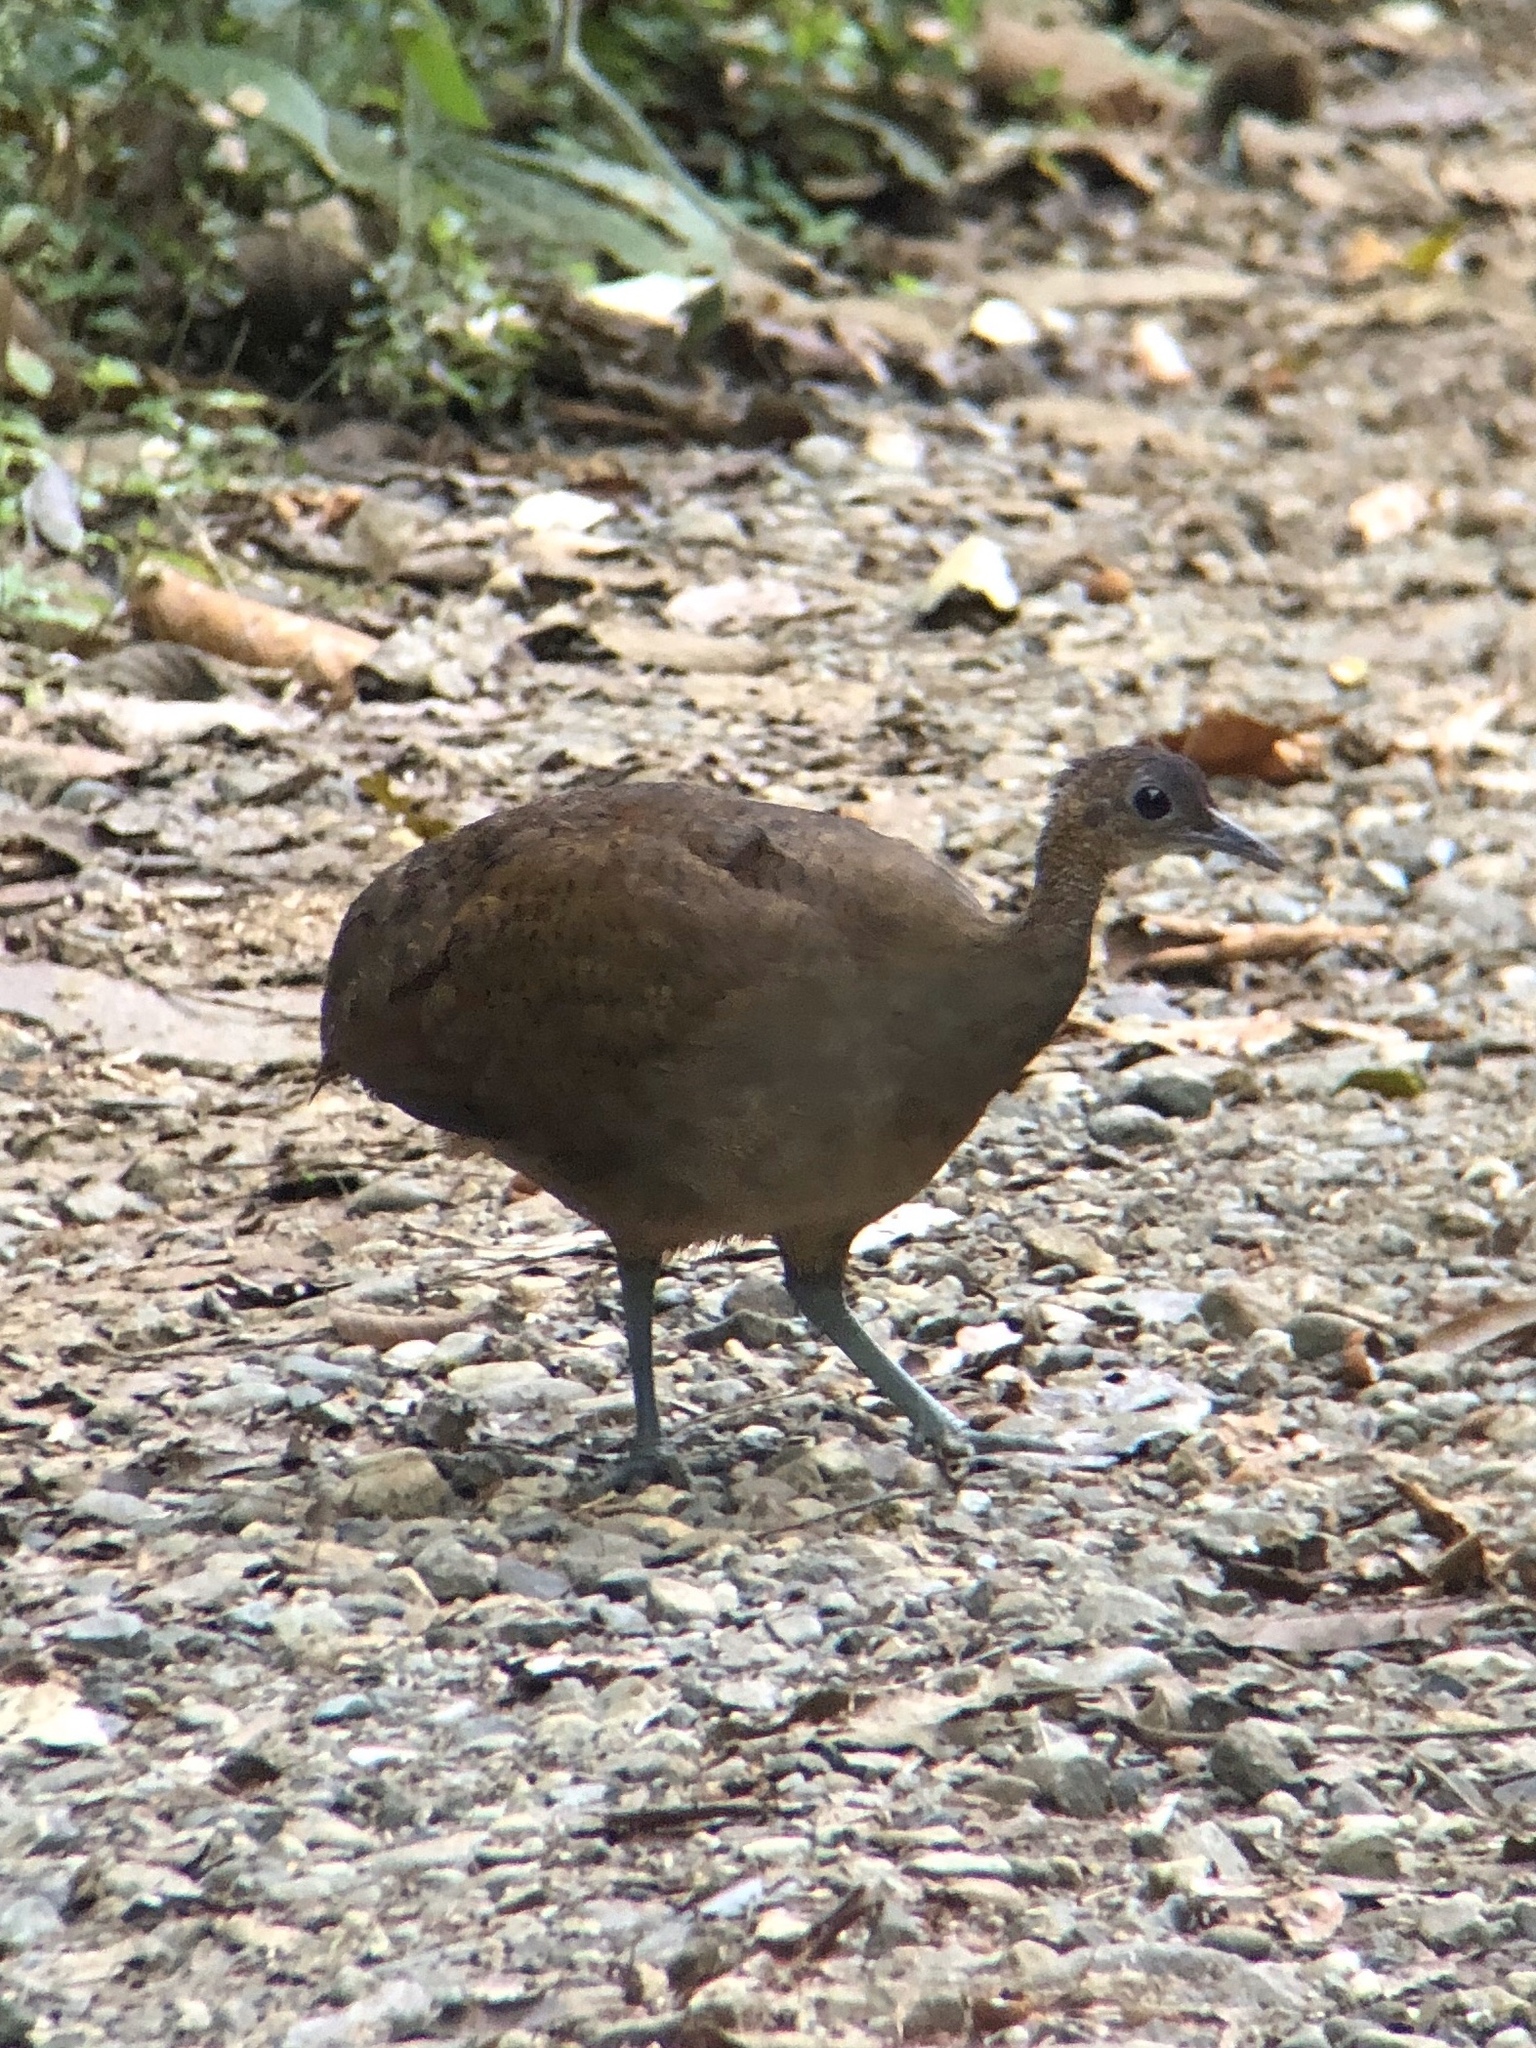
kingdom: Animalia
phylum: Chordata
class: Aves
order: Tinamiformes
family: Tinamidae
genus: Tinamus
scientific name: Tinamus major
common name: Great tinamou
